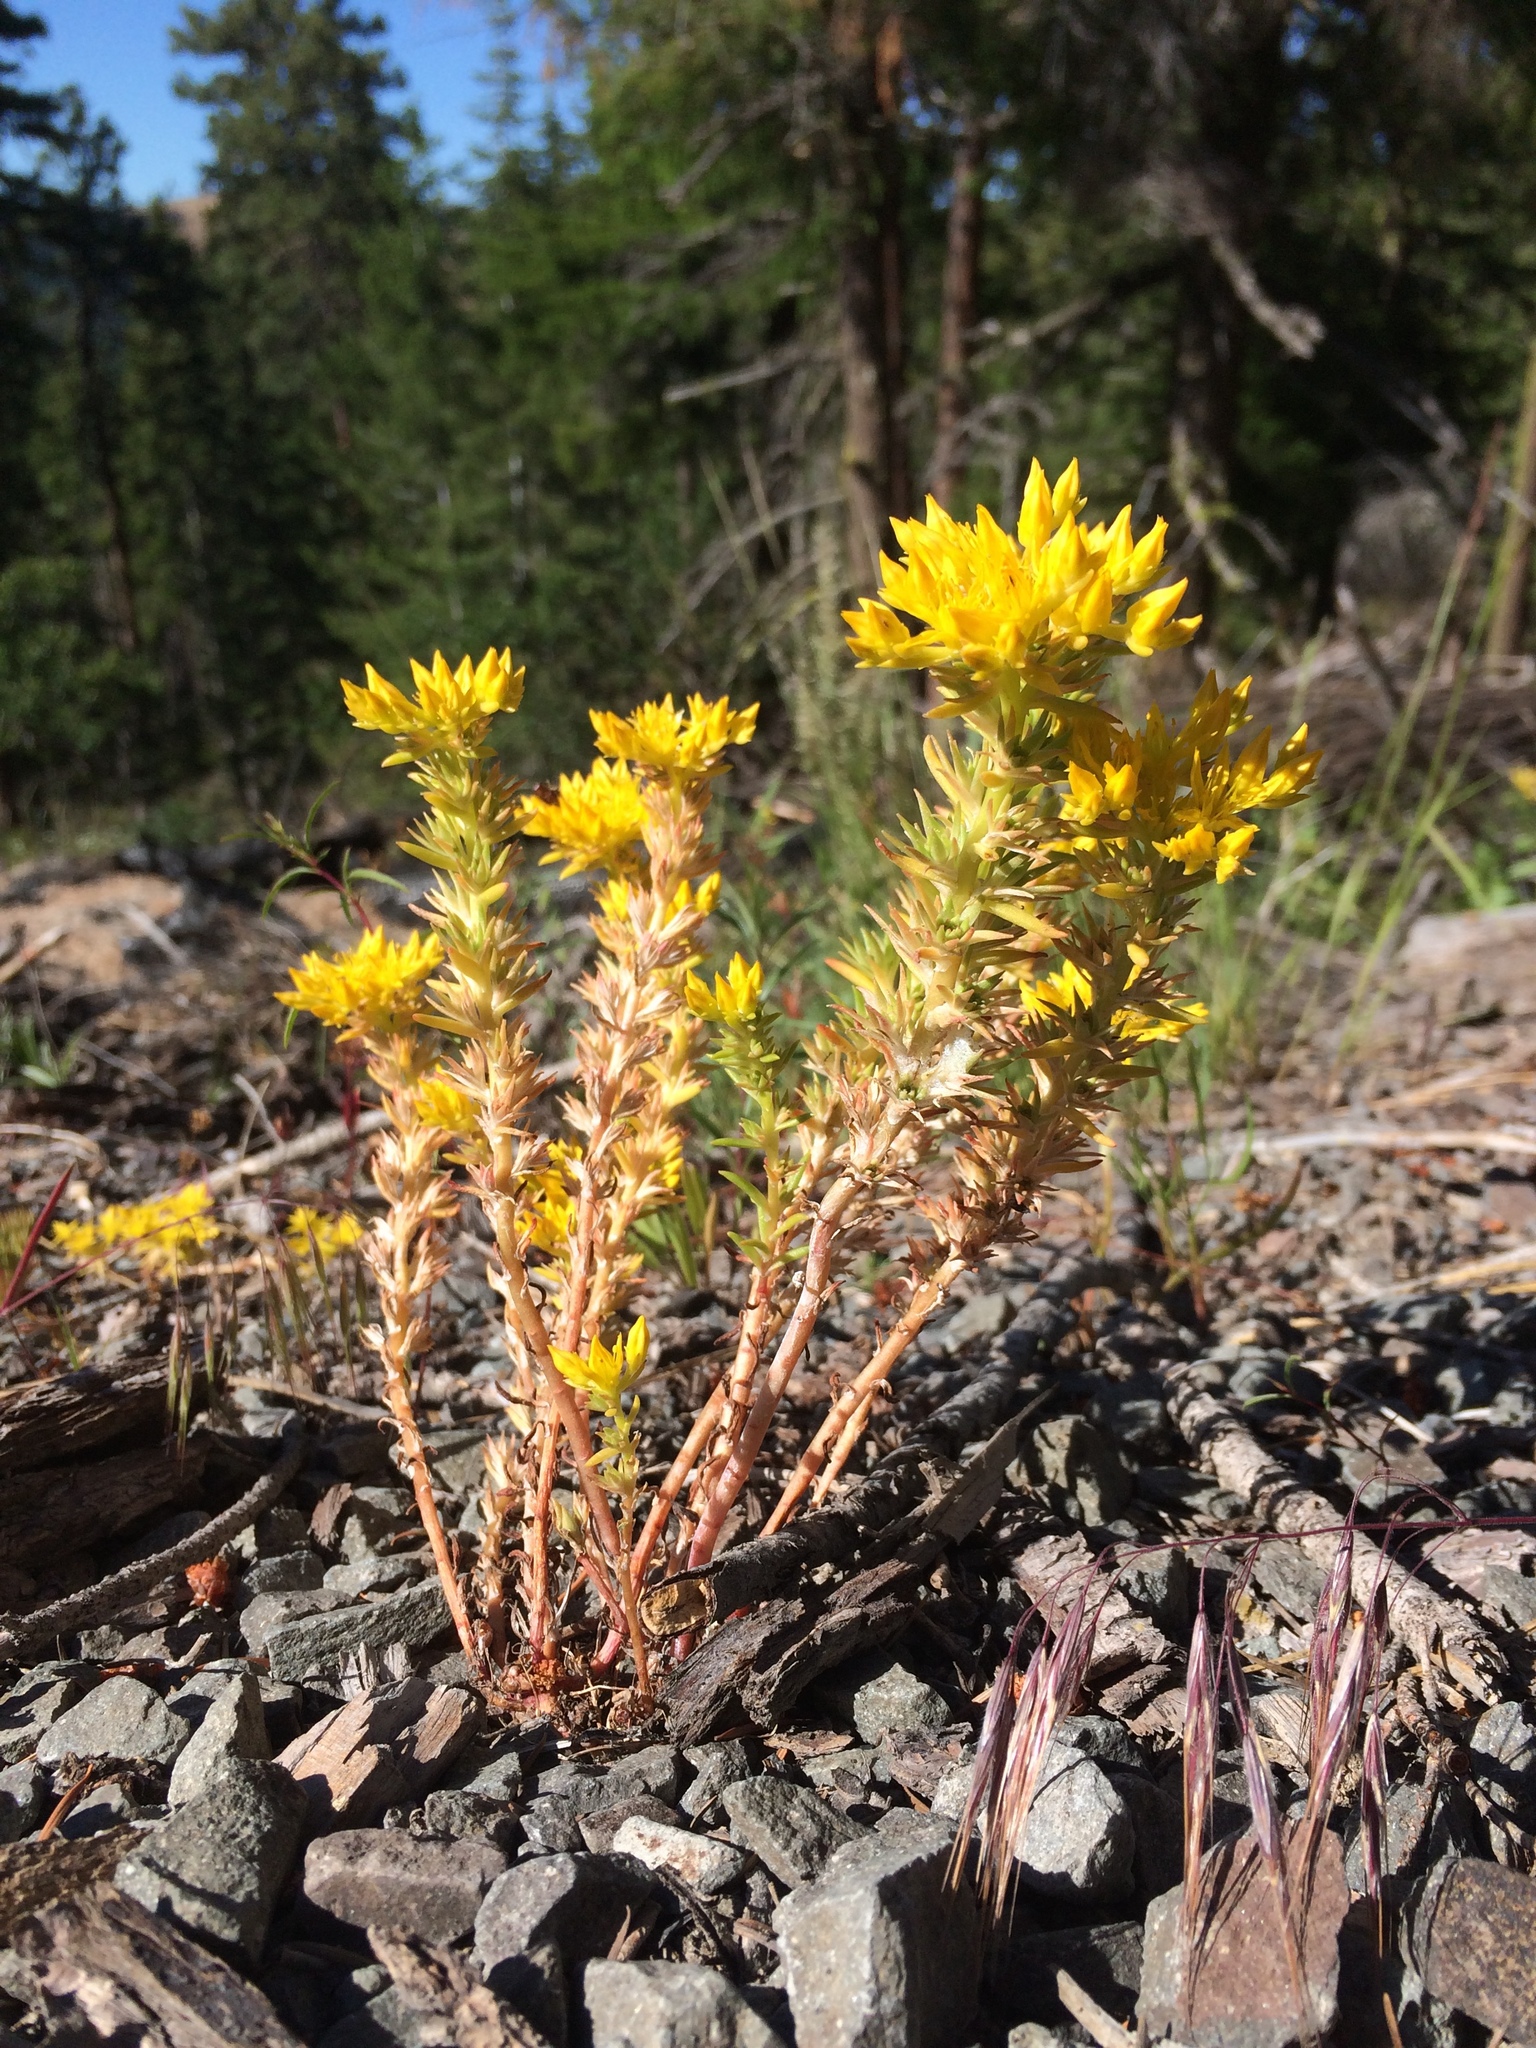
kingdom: Plantae
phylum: Tracheophyta
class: Magnoliopsida
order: Saxifragales
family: Crassulaceae
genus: Sedum
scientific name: Sedum stenopetalum
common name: Narrow-petaled stonecrop
